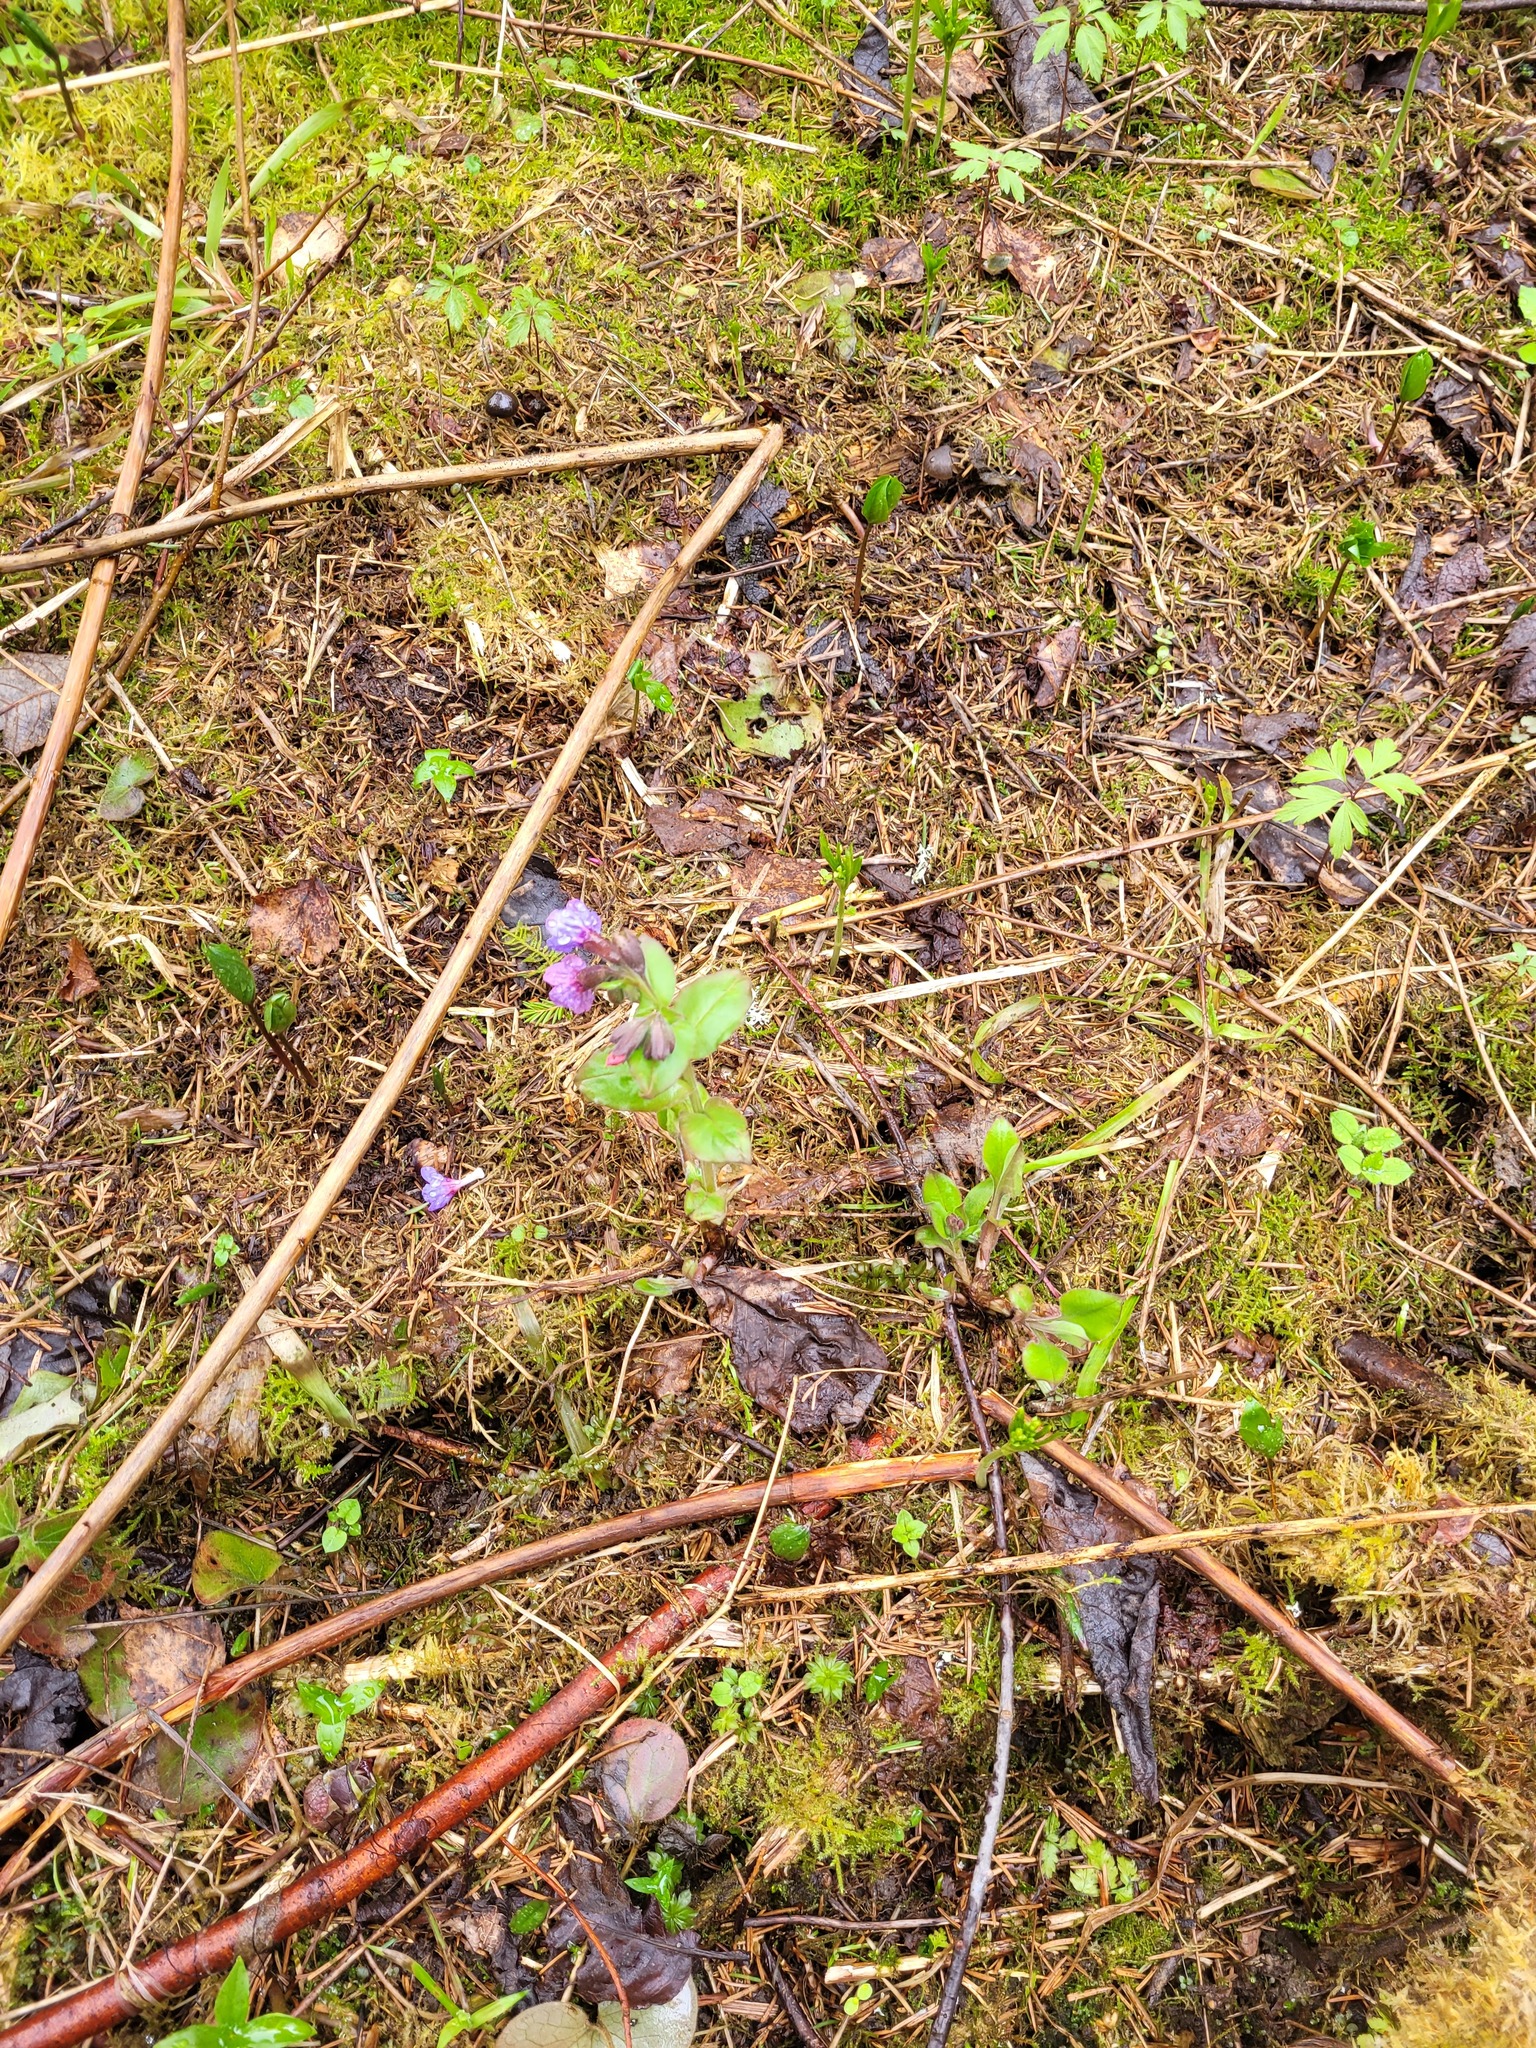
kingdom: Plantae
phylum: Tracheophyta
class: Magnoliopsida
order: Boraginales
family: Boraginaceae
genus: Pulmonaria
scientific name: Pulmonaria obscura
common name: Suffolk lungwort
